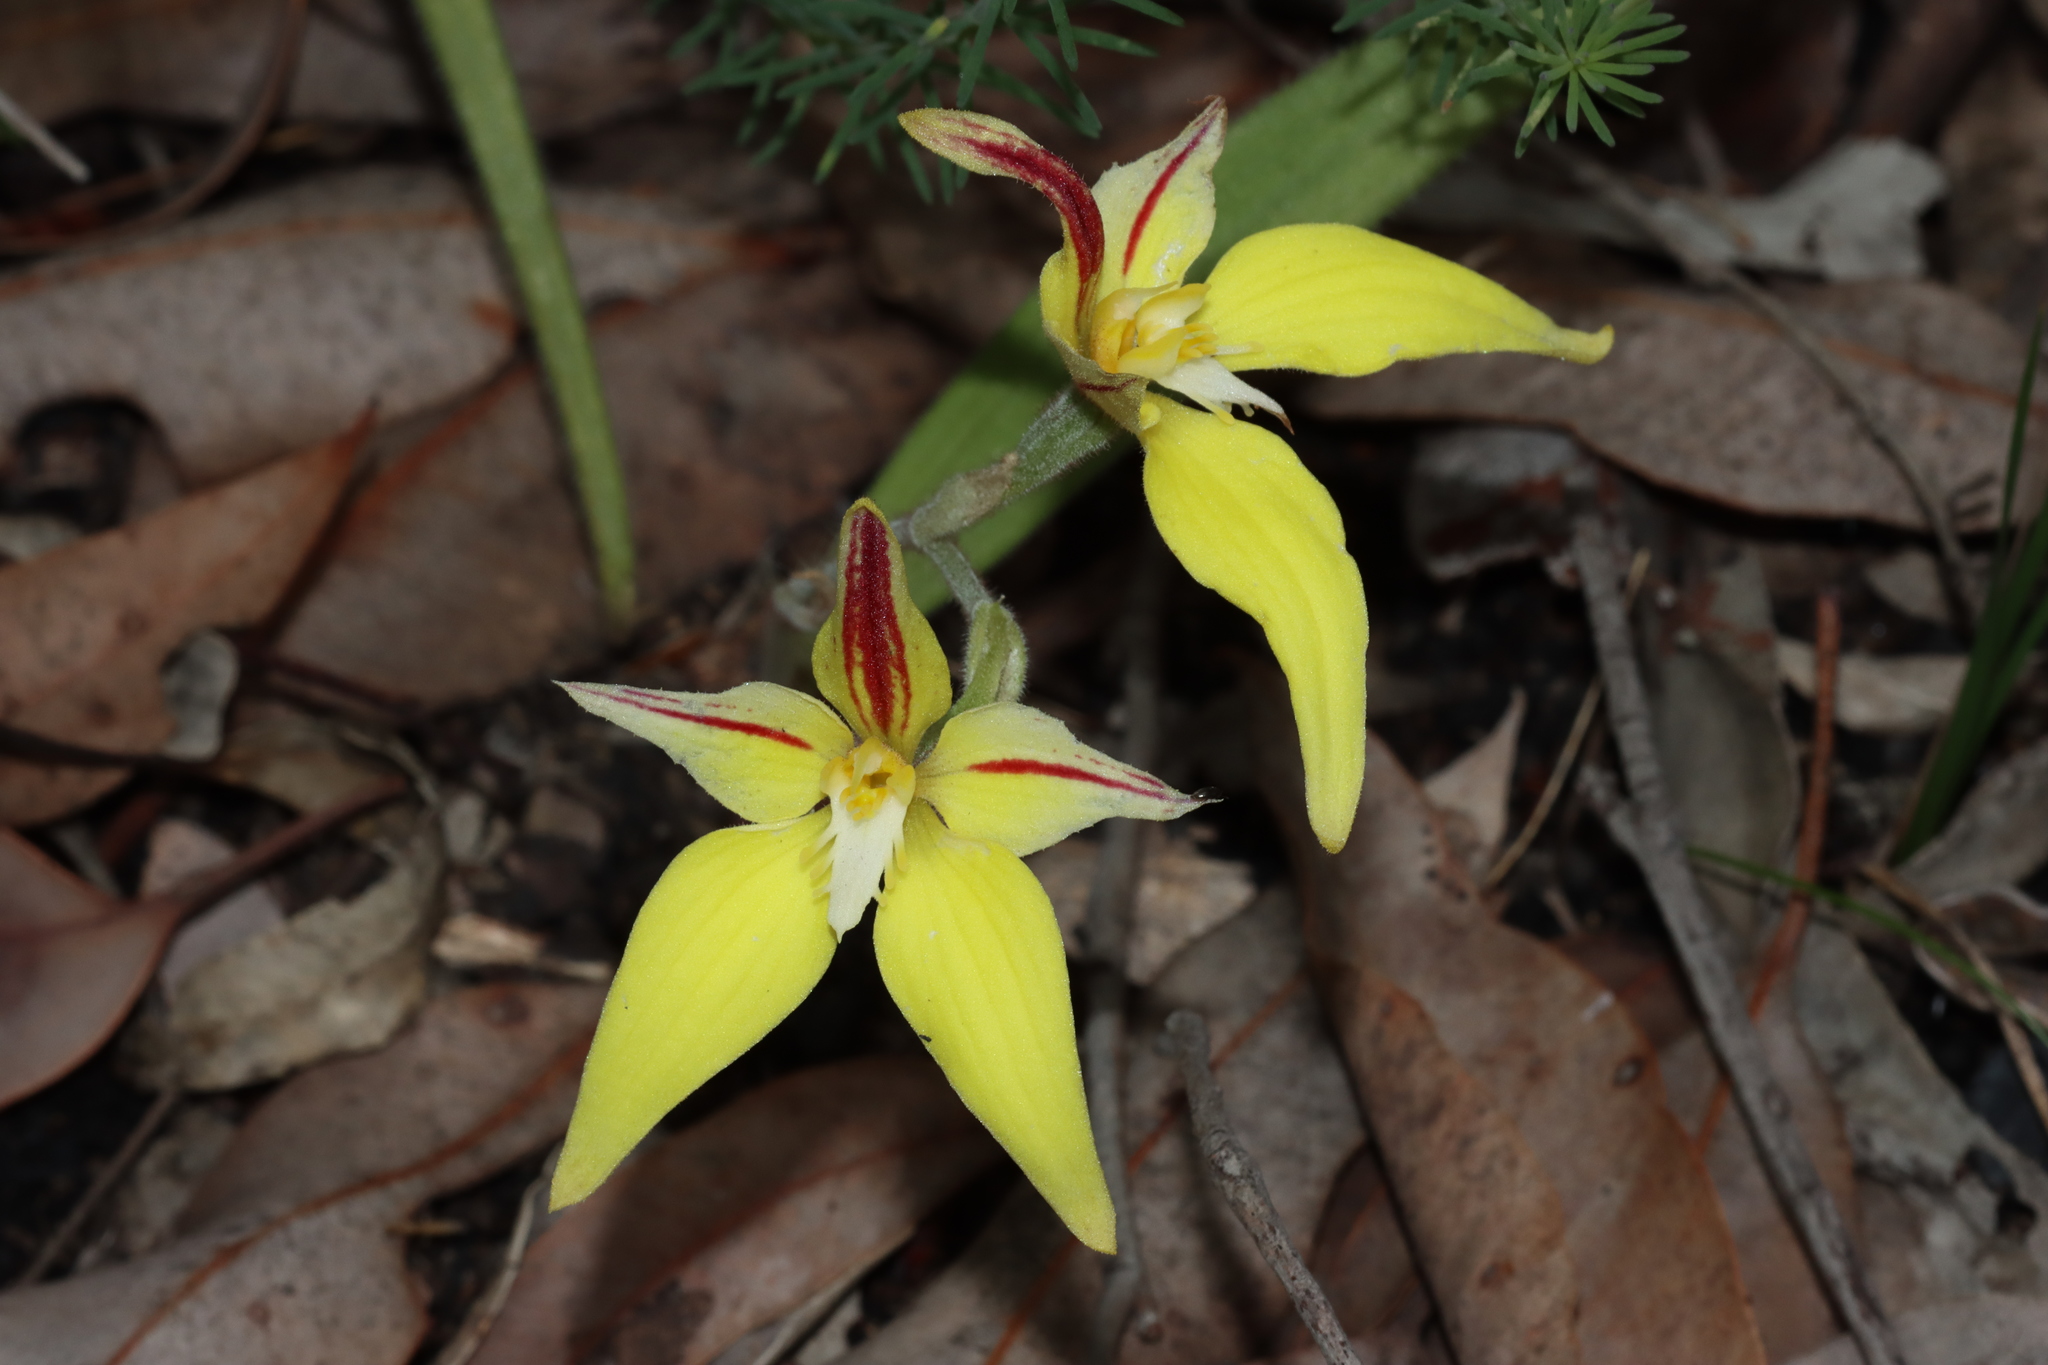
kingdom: Plantae
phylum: Tracheophyta
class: Liliopsida
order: Asparagales
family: Orchidaceae
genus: Caladenia
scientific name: Caladenia flava
